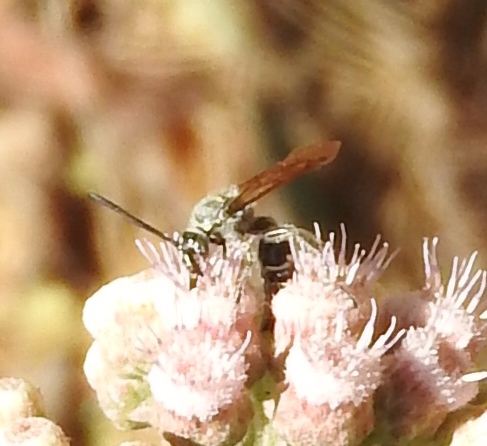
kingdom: Animalia
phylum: Arthropoda
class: Insecta
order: Hymenoptera
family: Scoliidae
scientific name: Scoliidae
